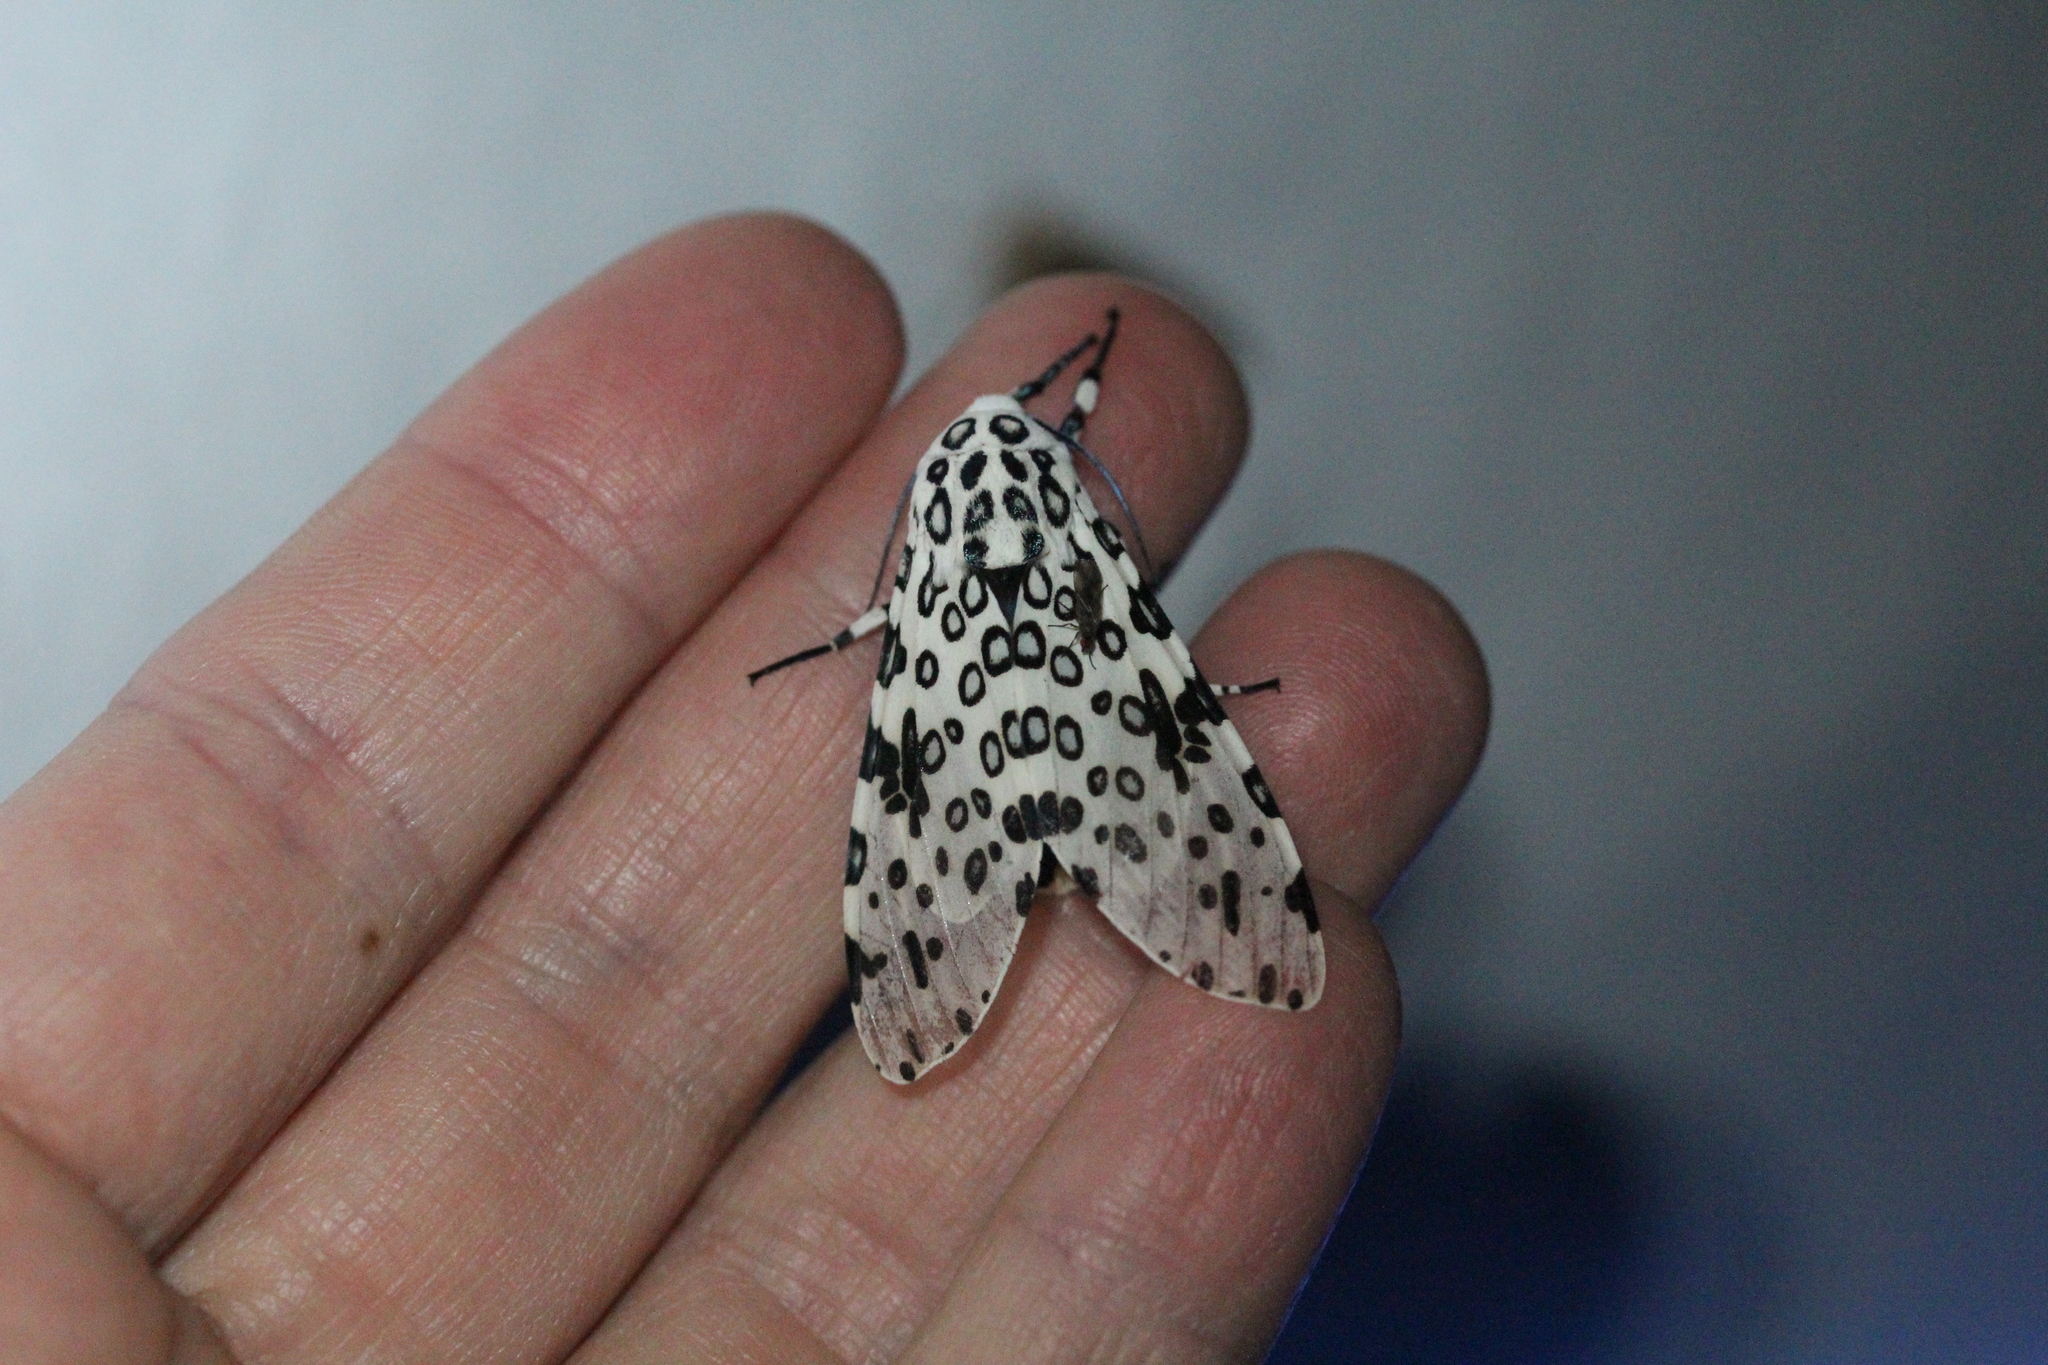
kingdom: Animalia
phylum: Arthropoda
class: Insecta
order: Lepidoptera
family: Erebidae
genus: Hypercompe
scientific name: Hypercompe scribonia
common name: Giant leopard moth
